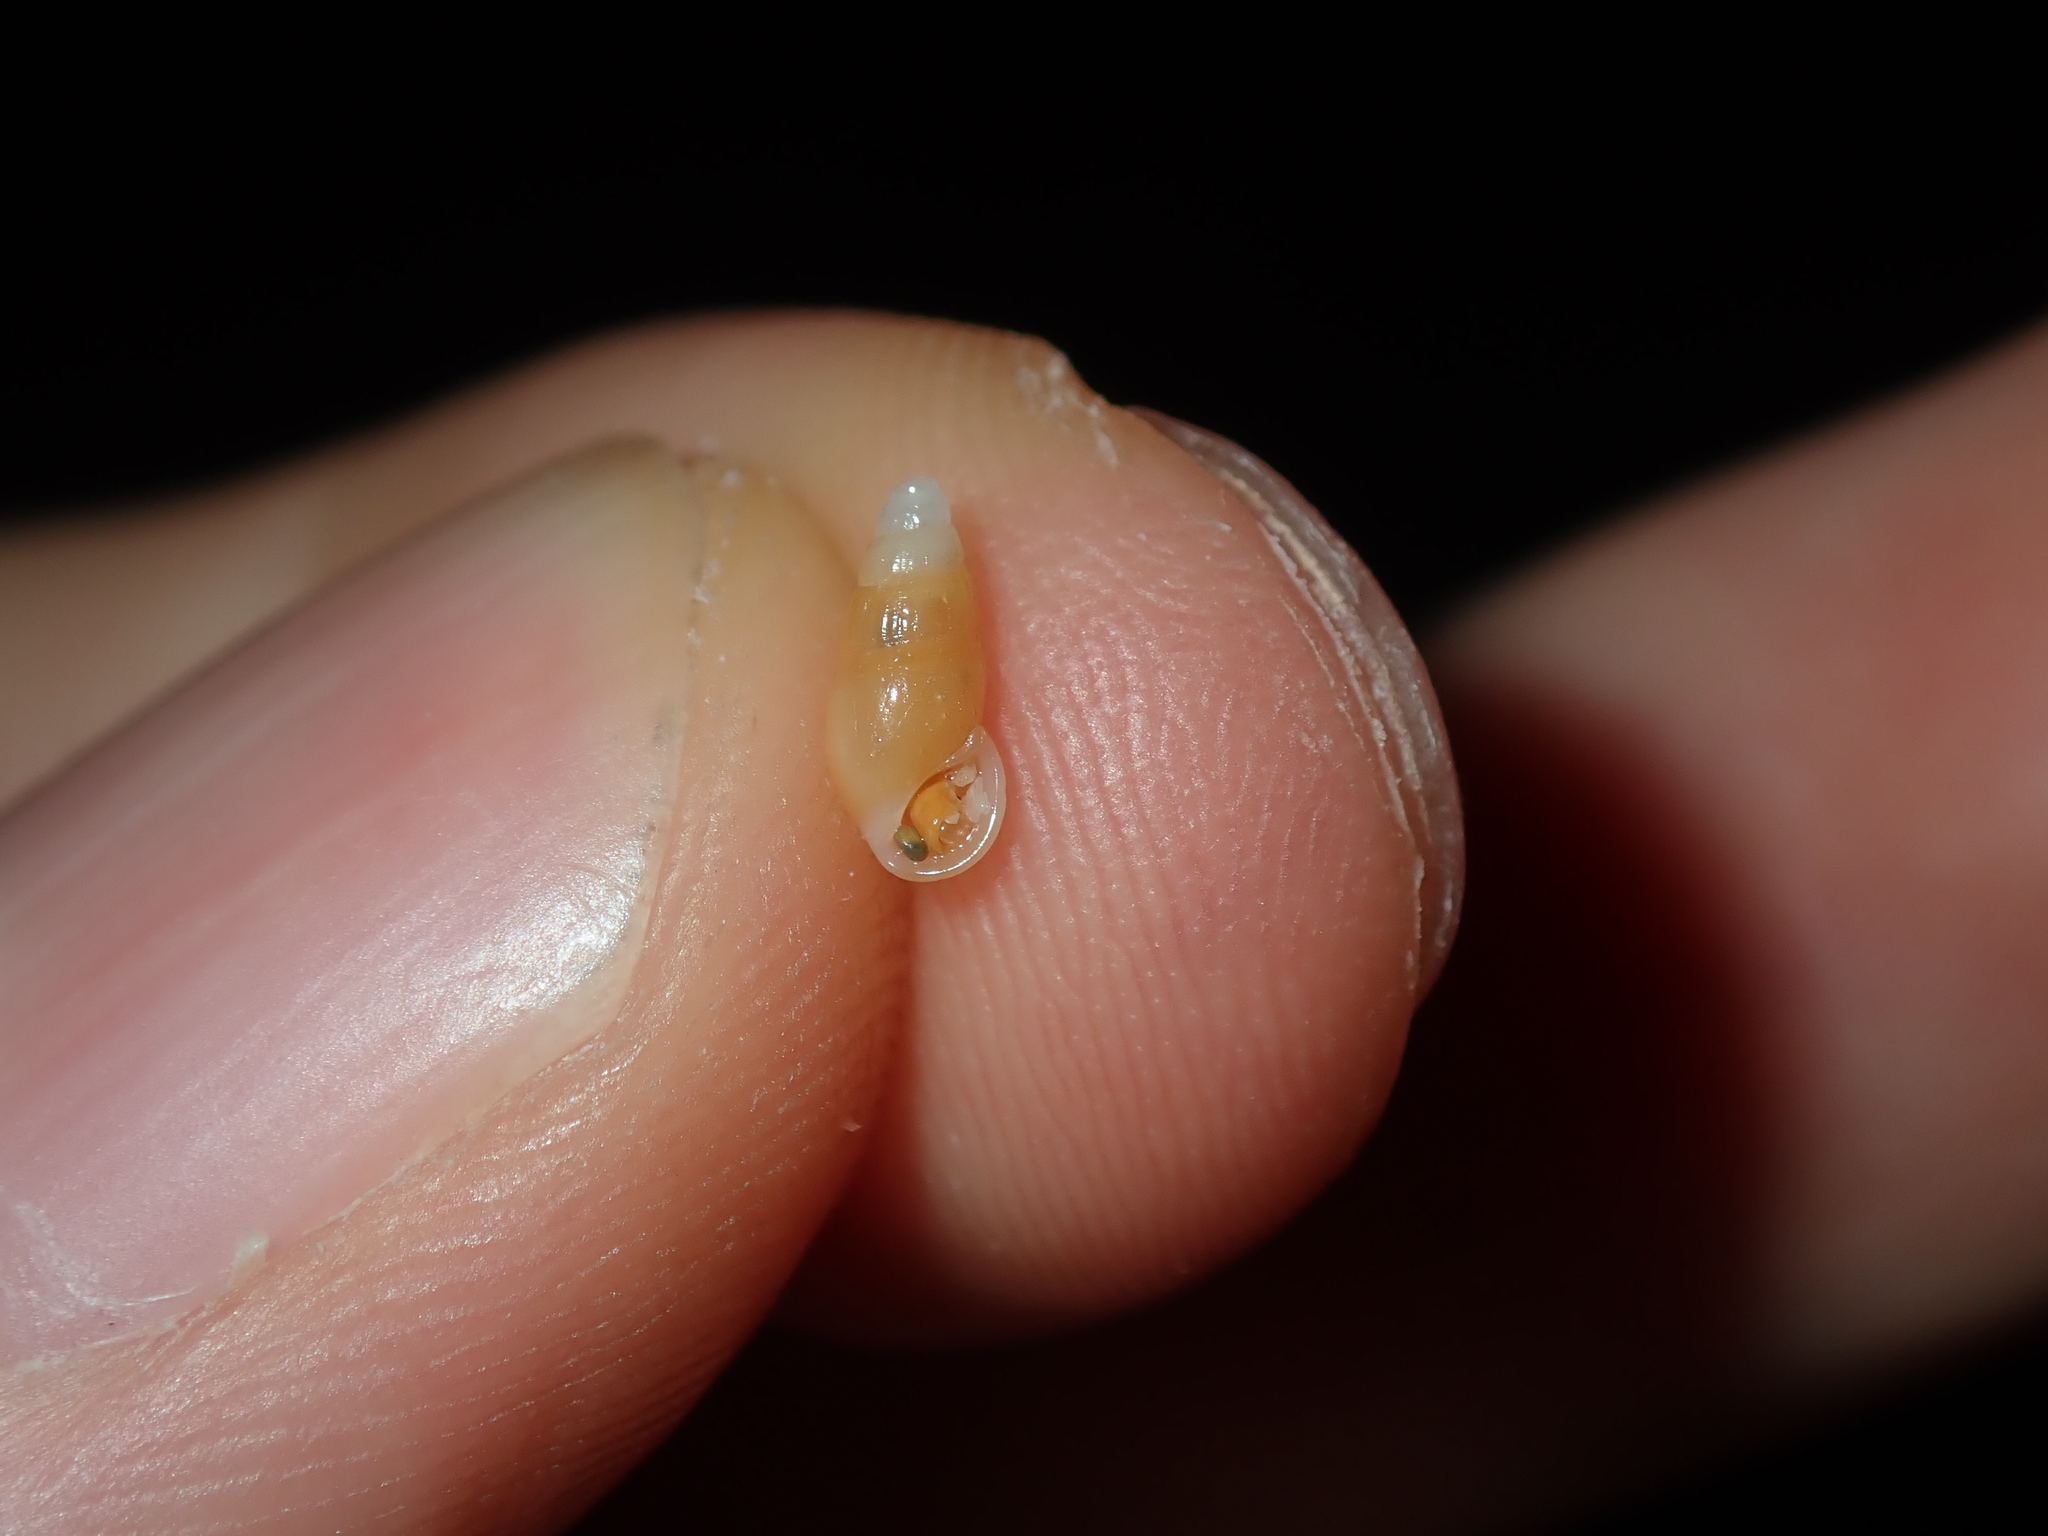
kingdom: Animalia
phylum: Mollusca
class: Gastropoda
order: Littorinimorpha
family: Rissoinidae
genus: Rissoina
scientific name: Rissoina fasciata
